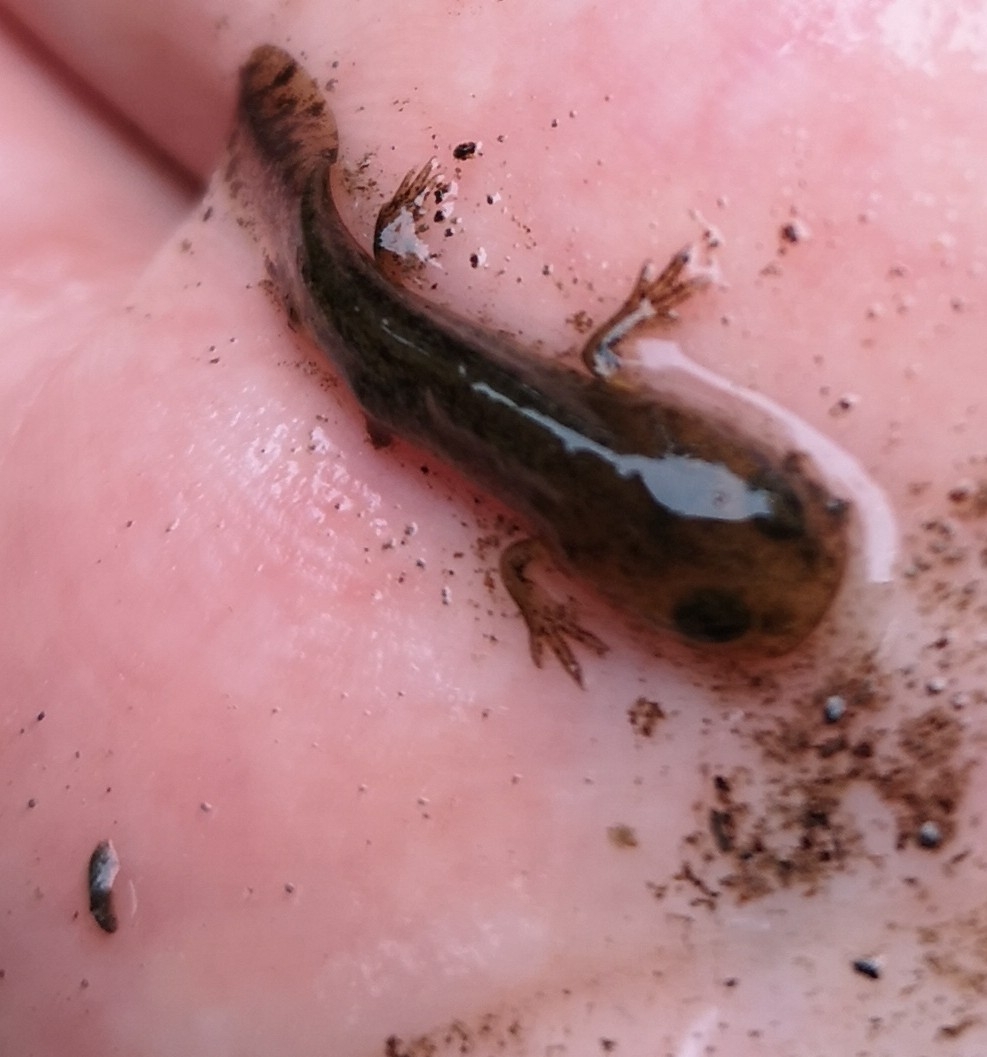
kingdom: Animalia
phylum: Chordata
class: Amphibia
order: Caudata
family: Salamandridae
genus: Salamandra
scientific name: Salamandra salamandra
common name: Fire salamander
